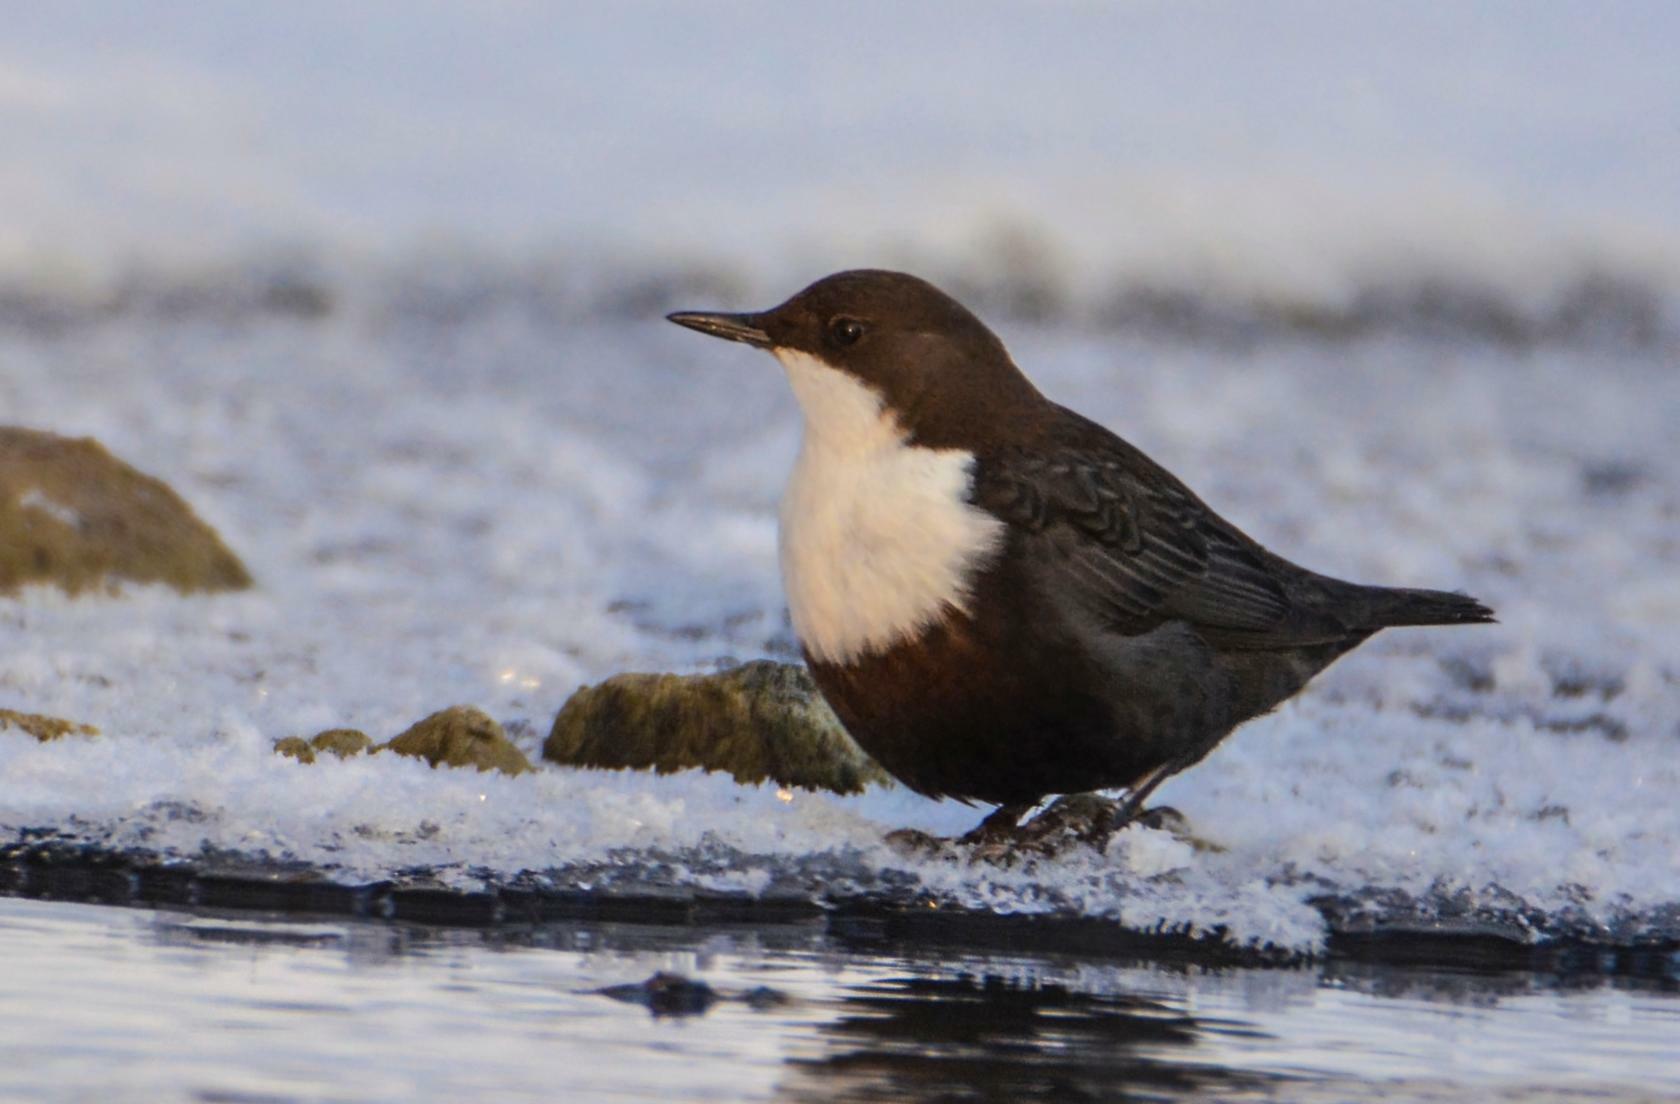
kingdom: Animalia
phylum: Chordata
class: Aves
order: Passeriformes
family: Cinclidae
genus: Cinclus
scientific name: Cinclus cinclus
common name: White-throated dipper
